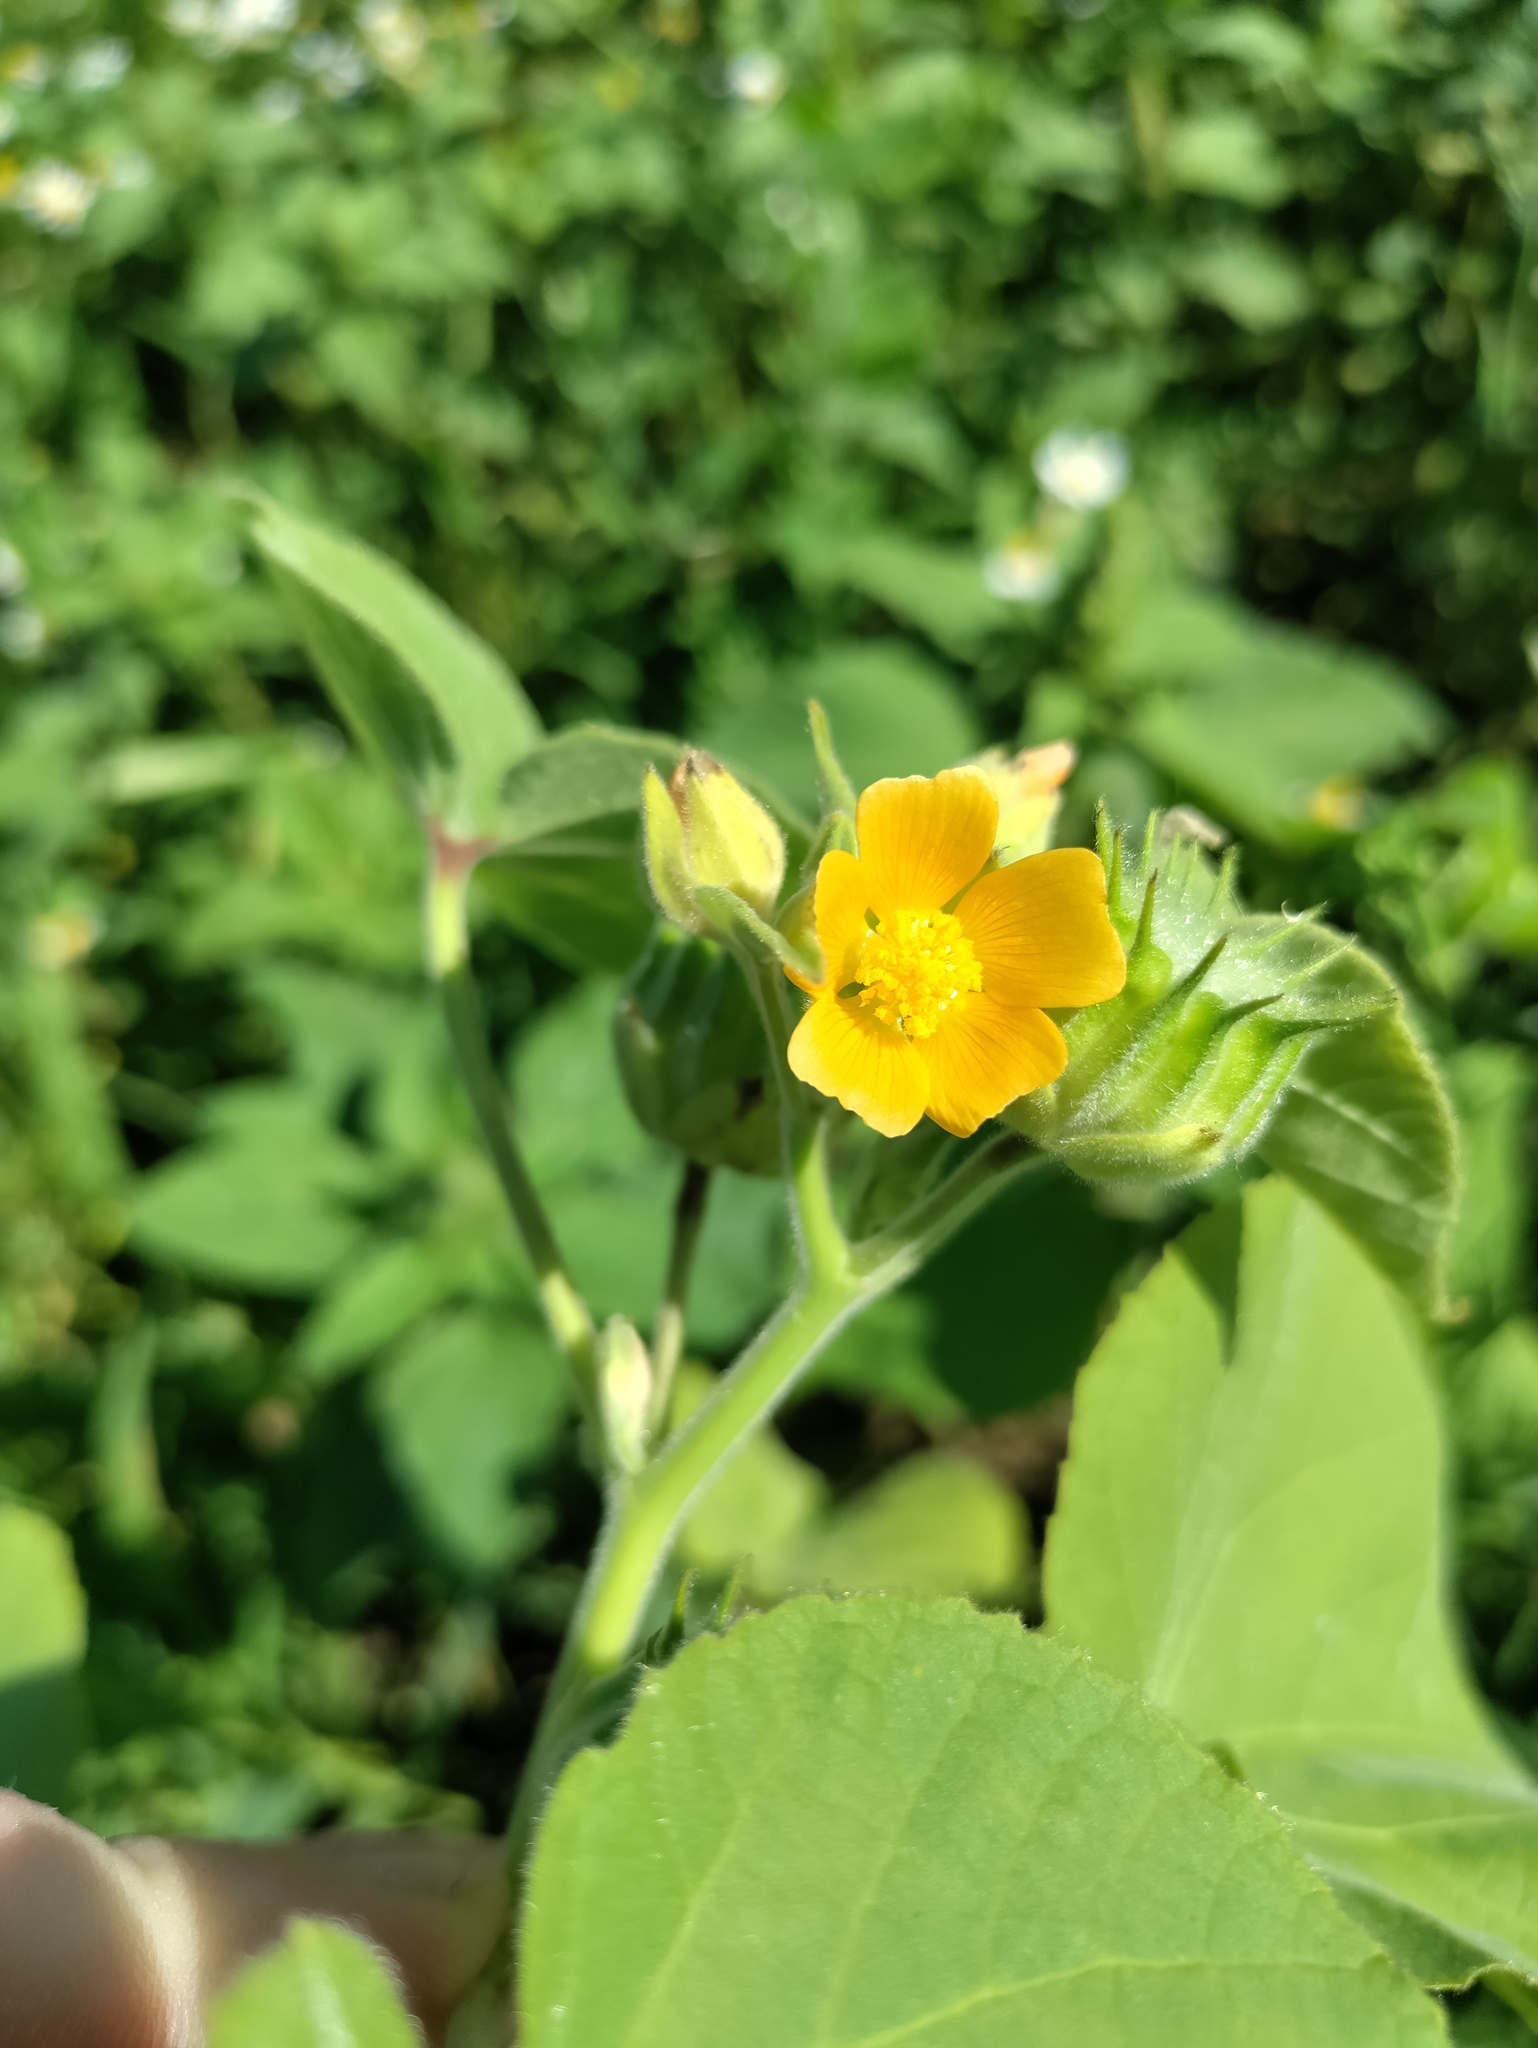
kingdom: Plantae
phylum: Tracheophyta
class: Magnoliopsida
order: Malvales
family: Malvaceae
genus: Abutilon
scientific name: Abutilon theophrasti
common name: Velvetleaf
